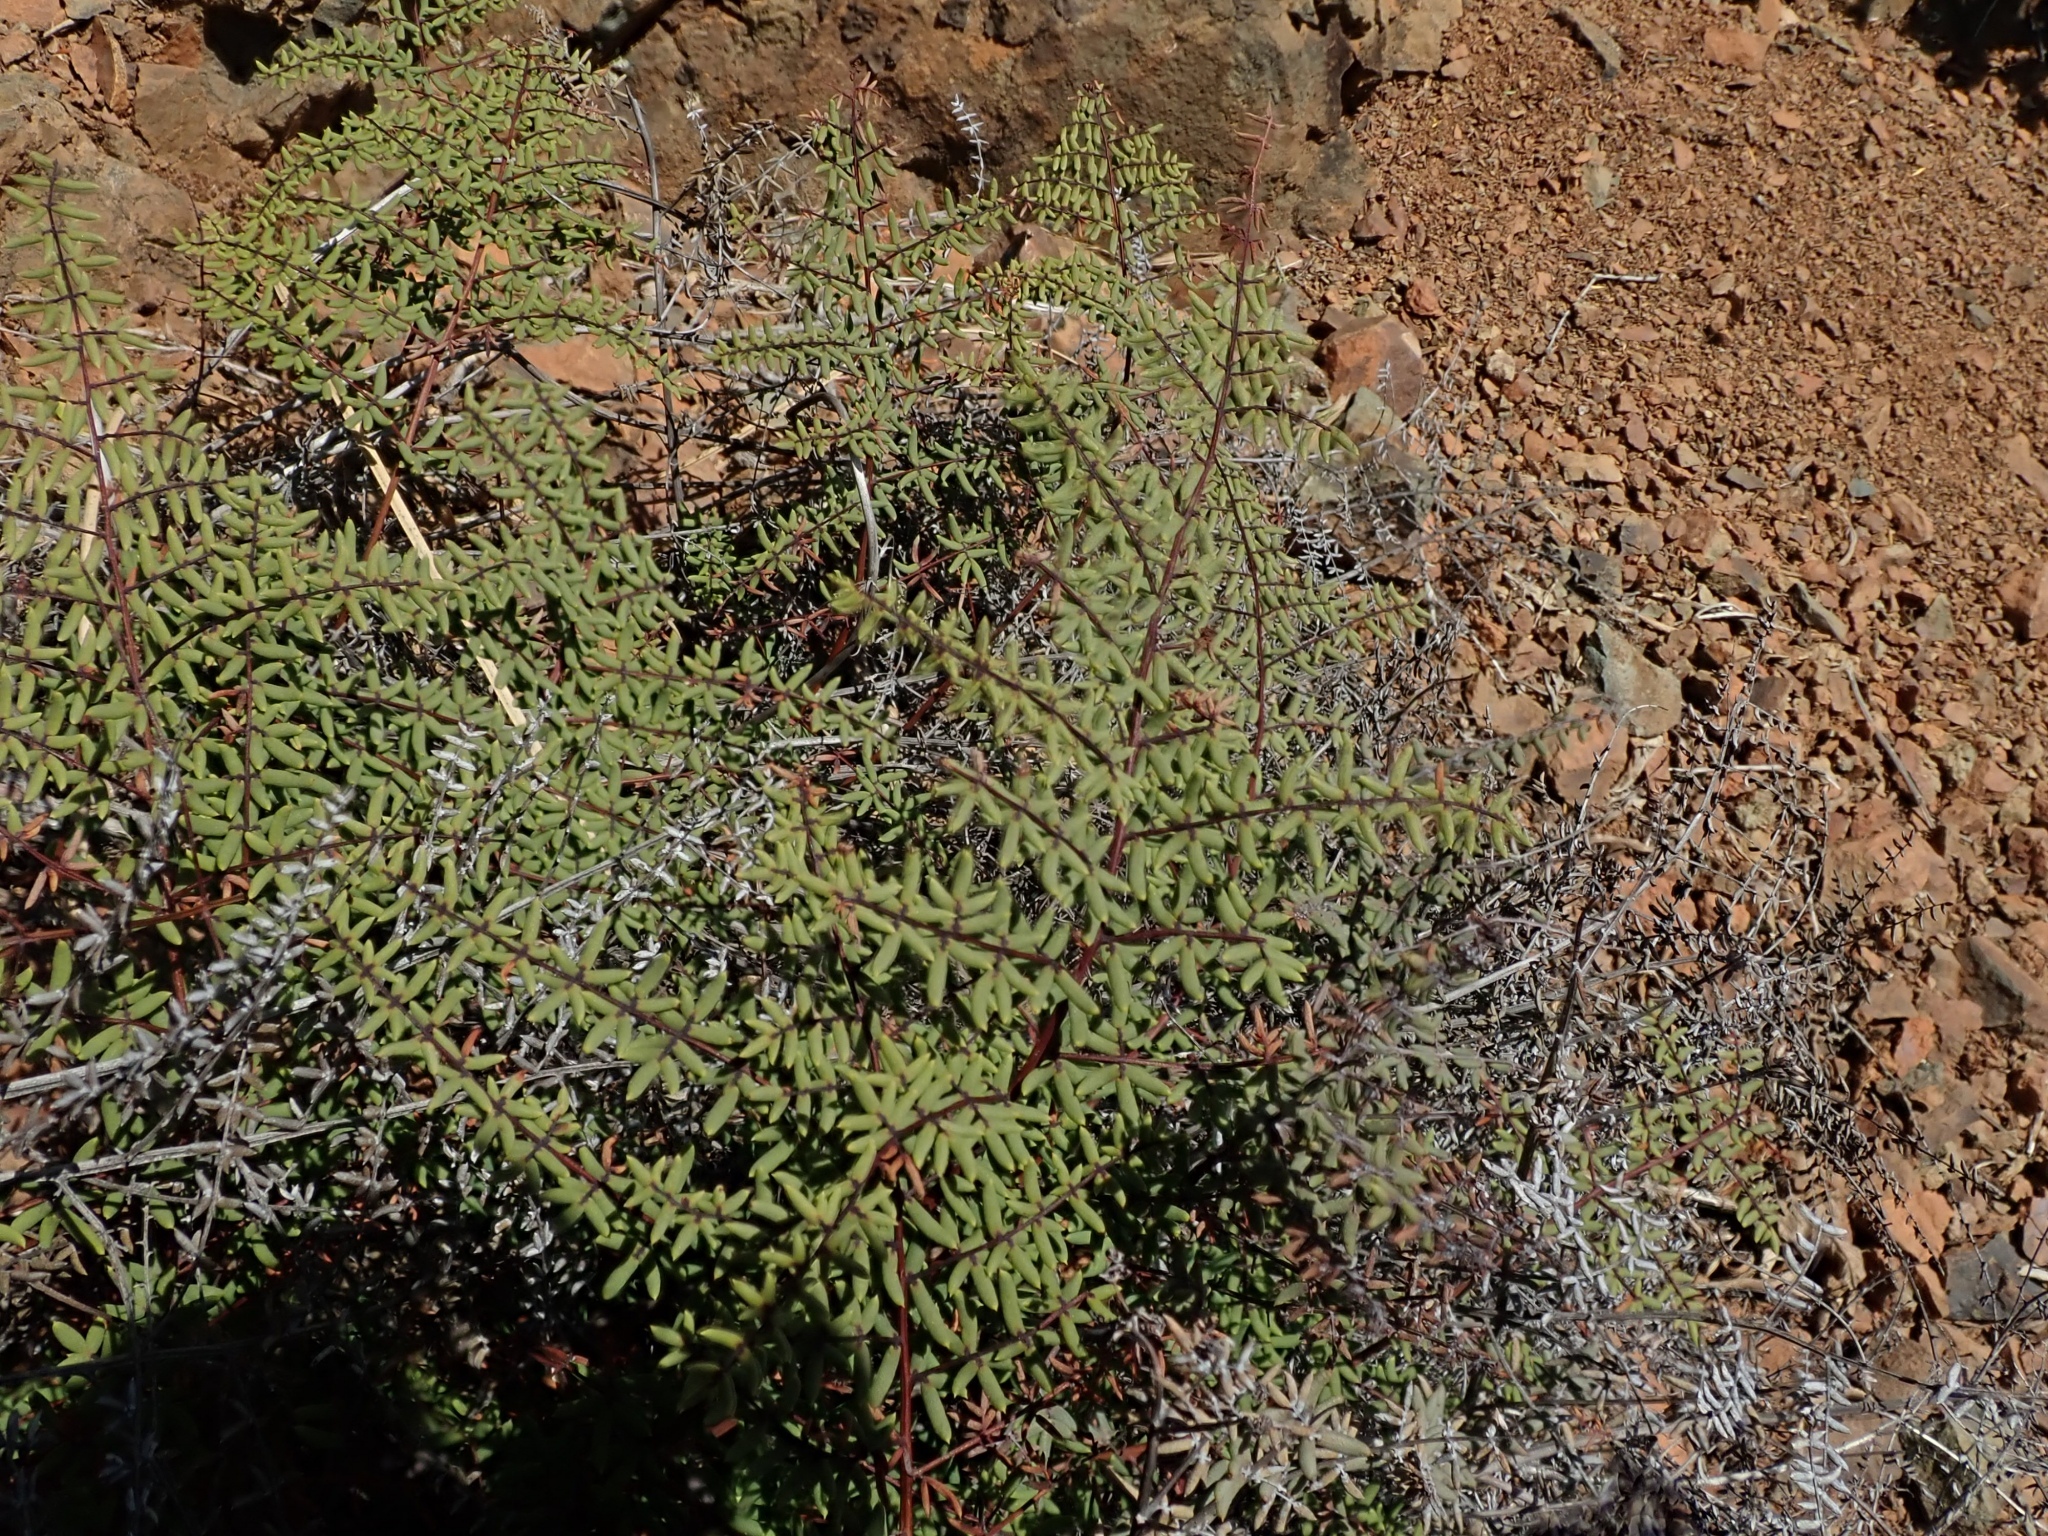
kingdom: Plantae
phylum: Tracheophyta
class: Polypodiopsida
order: Polypodiales
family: Pteridaceae
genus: Pellaea
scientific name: Pellaea mucronata
